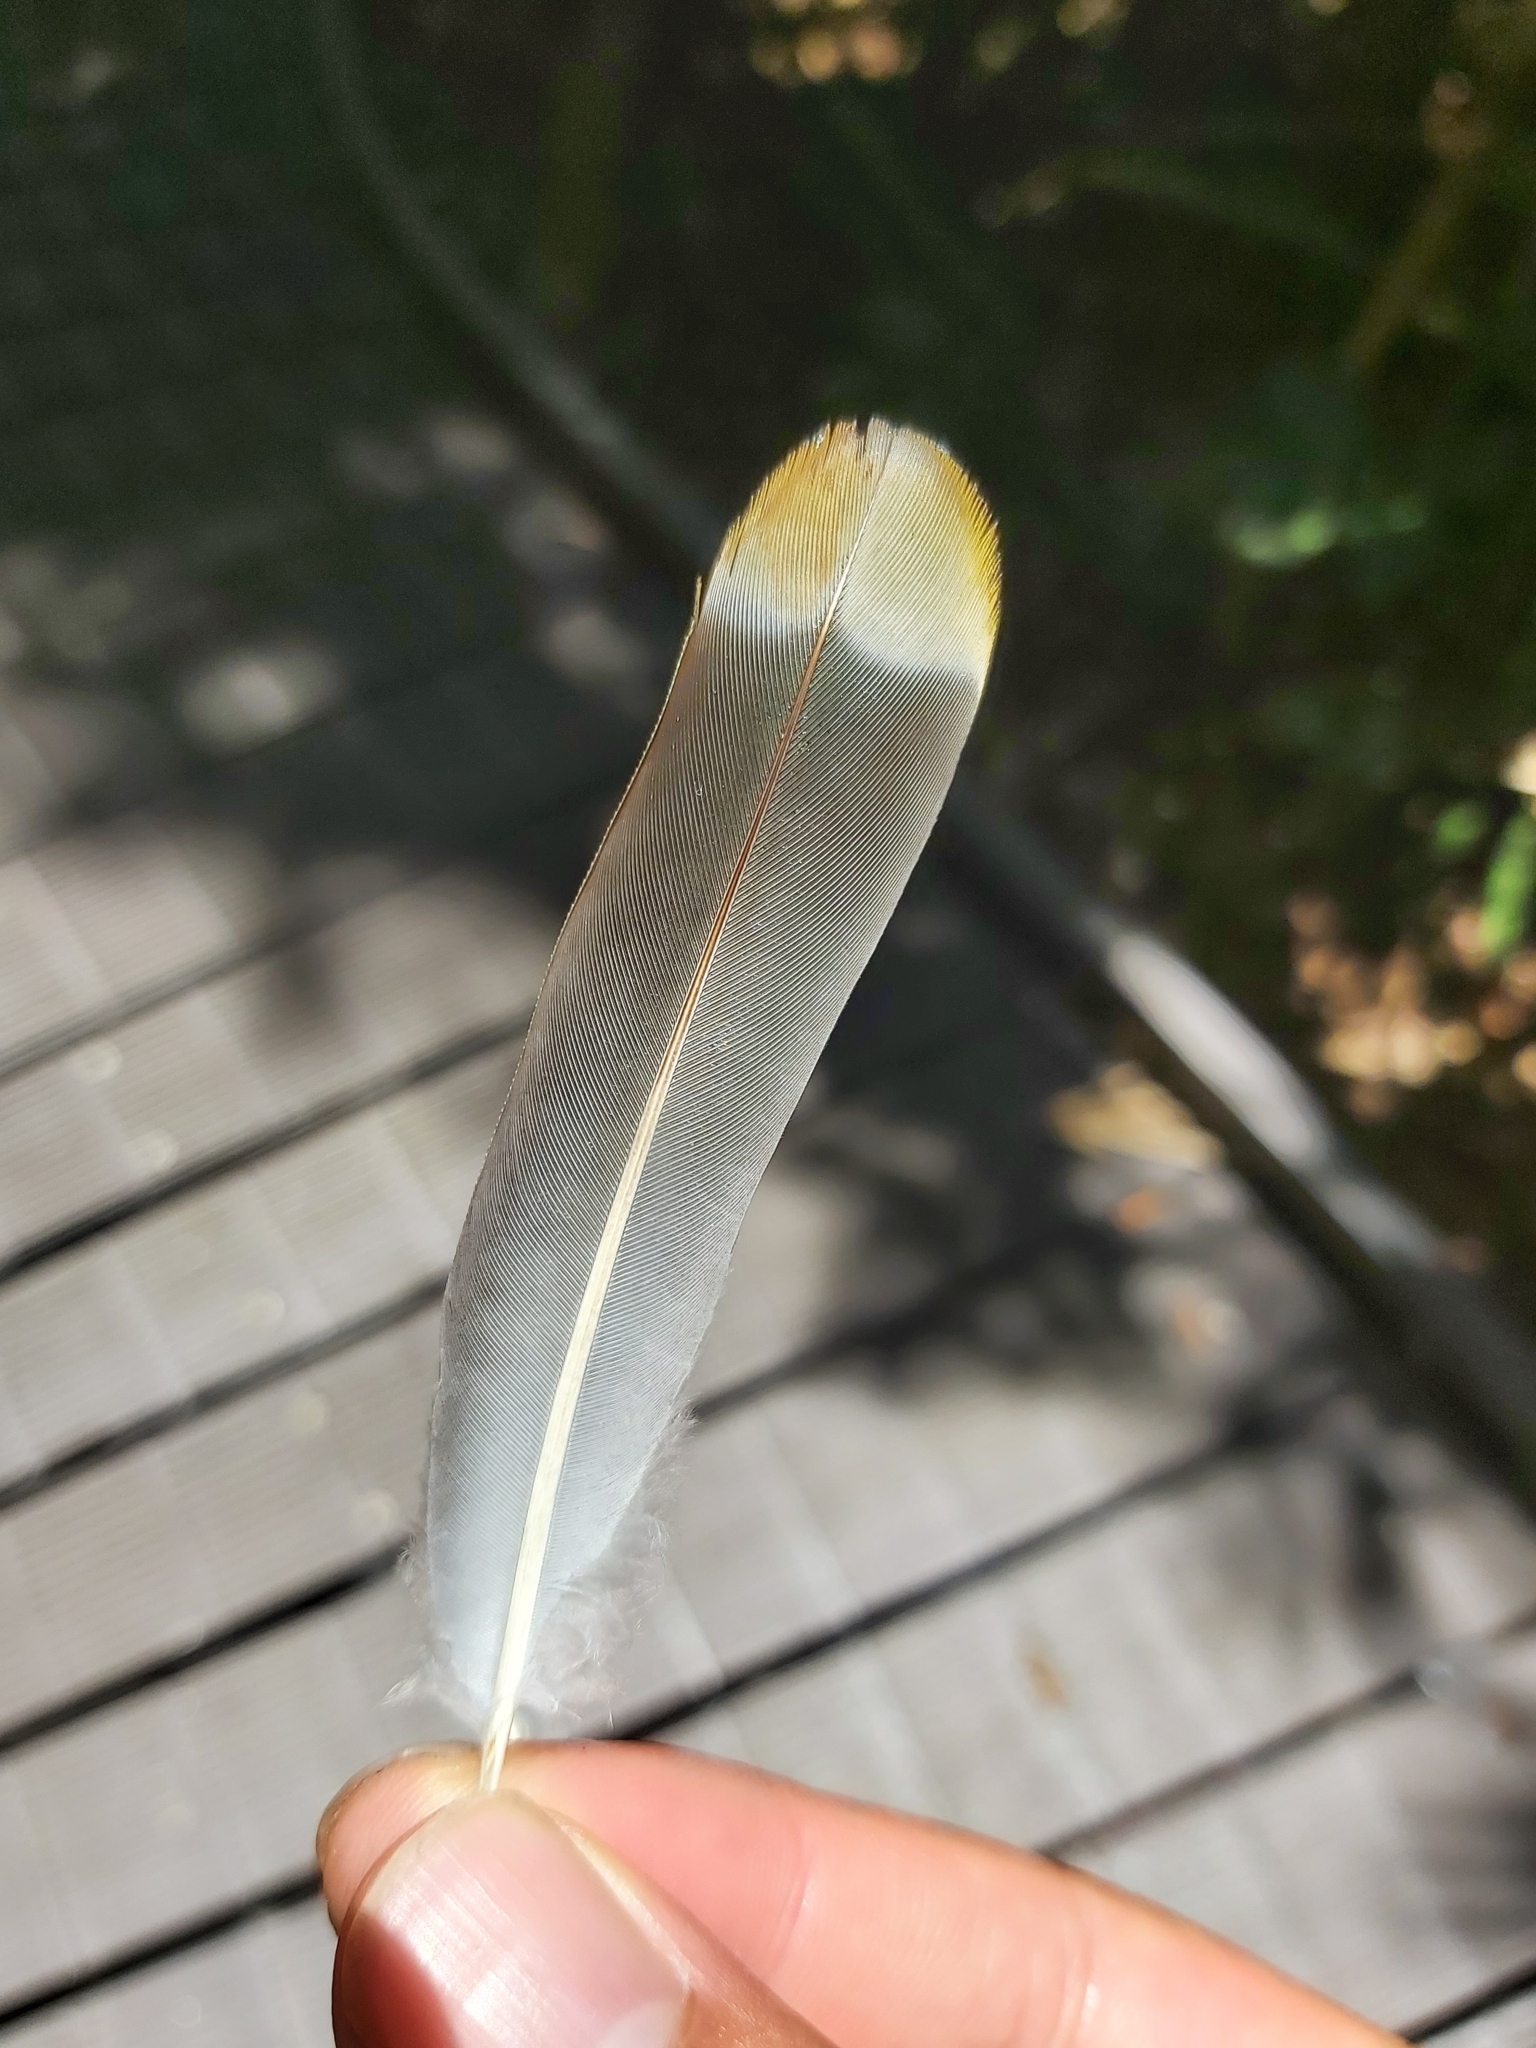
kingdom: Animalia
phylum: Chordata
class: Aves
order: Columbiformes
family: Columbidae
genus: Ptilinopus
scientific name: Ptilinopus regina
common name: Rose-crowned fruit dove
